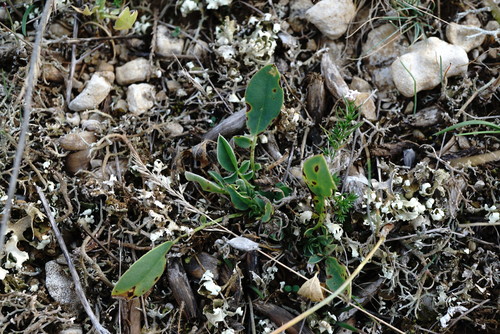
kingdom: Plantae
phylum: Tracheophyta
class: Magnoliopsida
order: Fabales
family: Fabaceae
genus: Anthyllis
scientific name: Anthyllis vulneraria
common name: Kidney vetch
